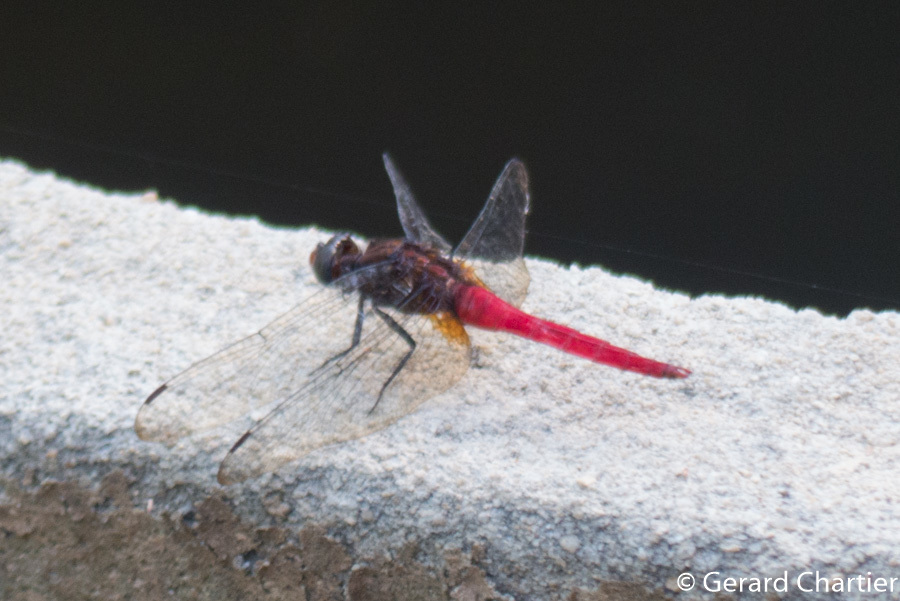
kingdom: Animalia
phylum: Arthropoda
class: Insecta
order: Odonata
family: Libellulidae
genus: Orthetrum
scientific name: Orthetrum chrysis
